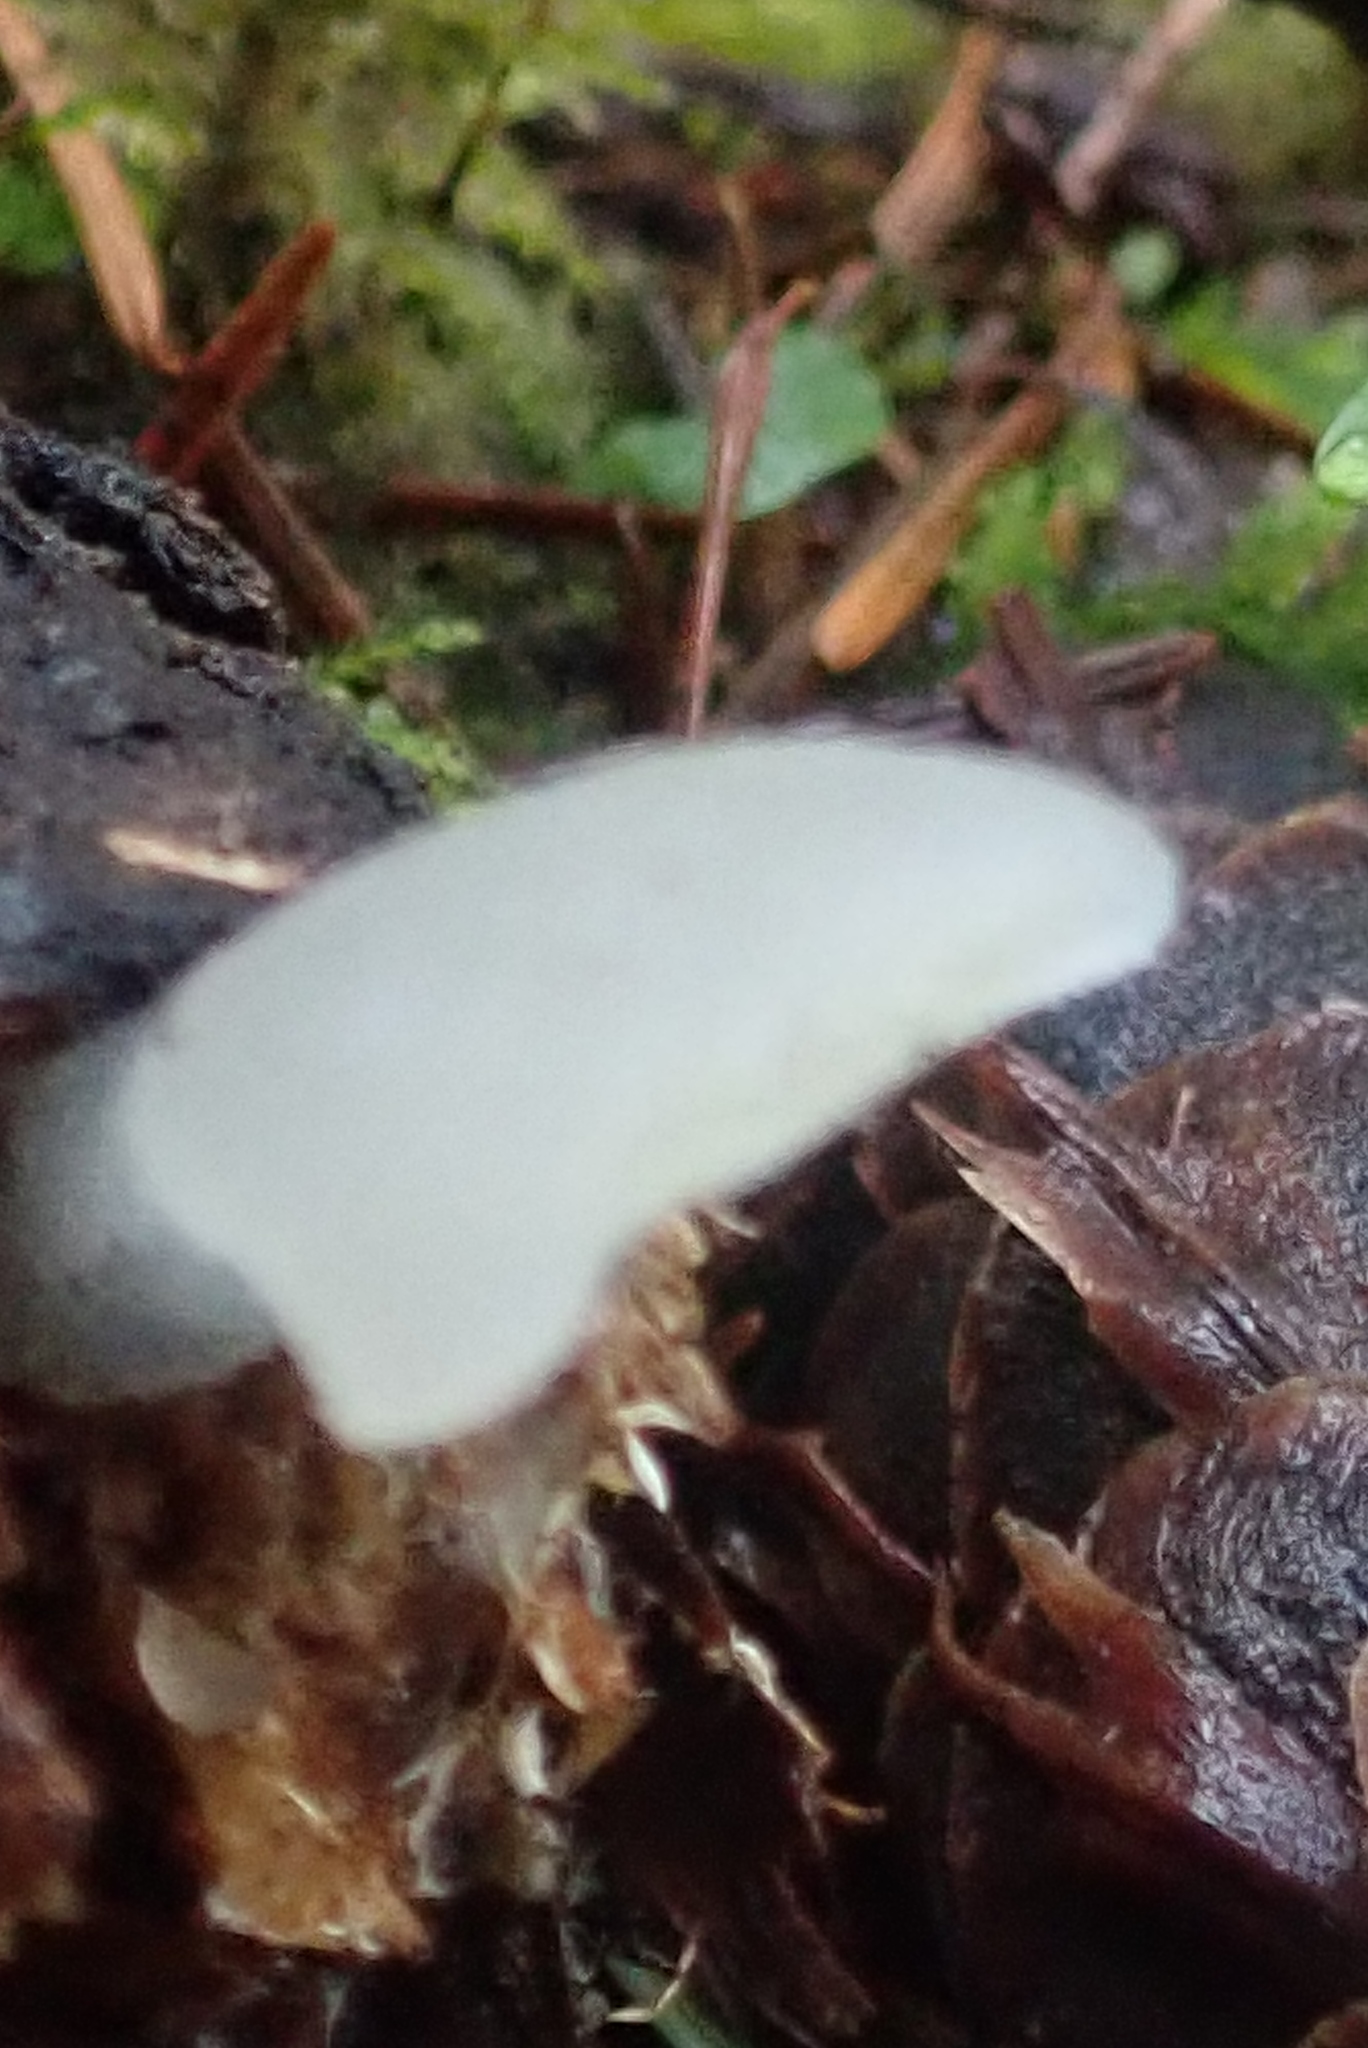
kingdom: Fungi
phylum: Basidiomycota
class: Agaricomycetes
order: Auriculariales
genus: Pseudohydnum
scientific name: Pseudohydnum gelatinosum
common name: Jelly tongue
